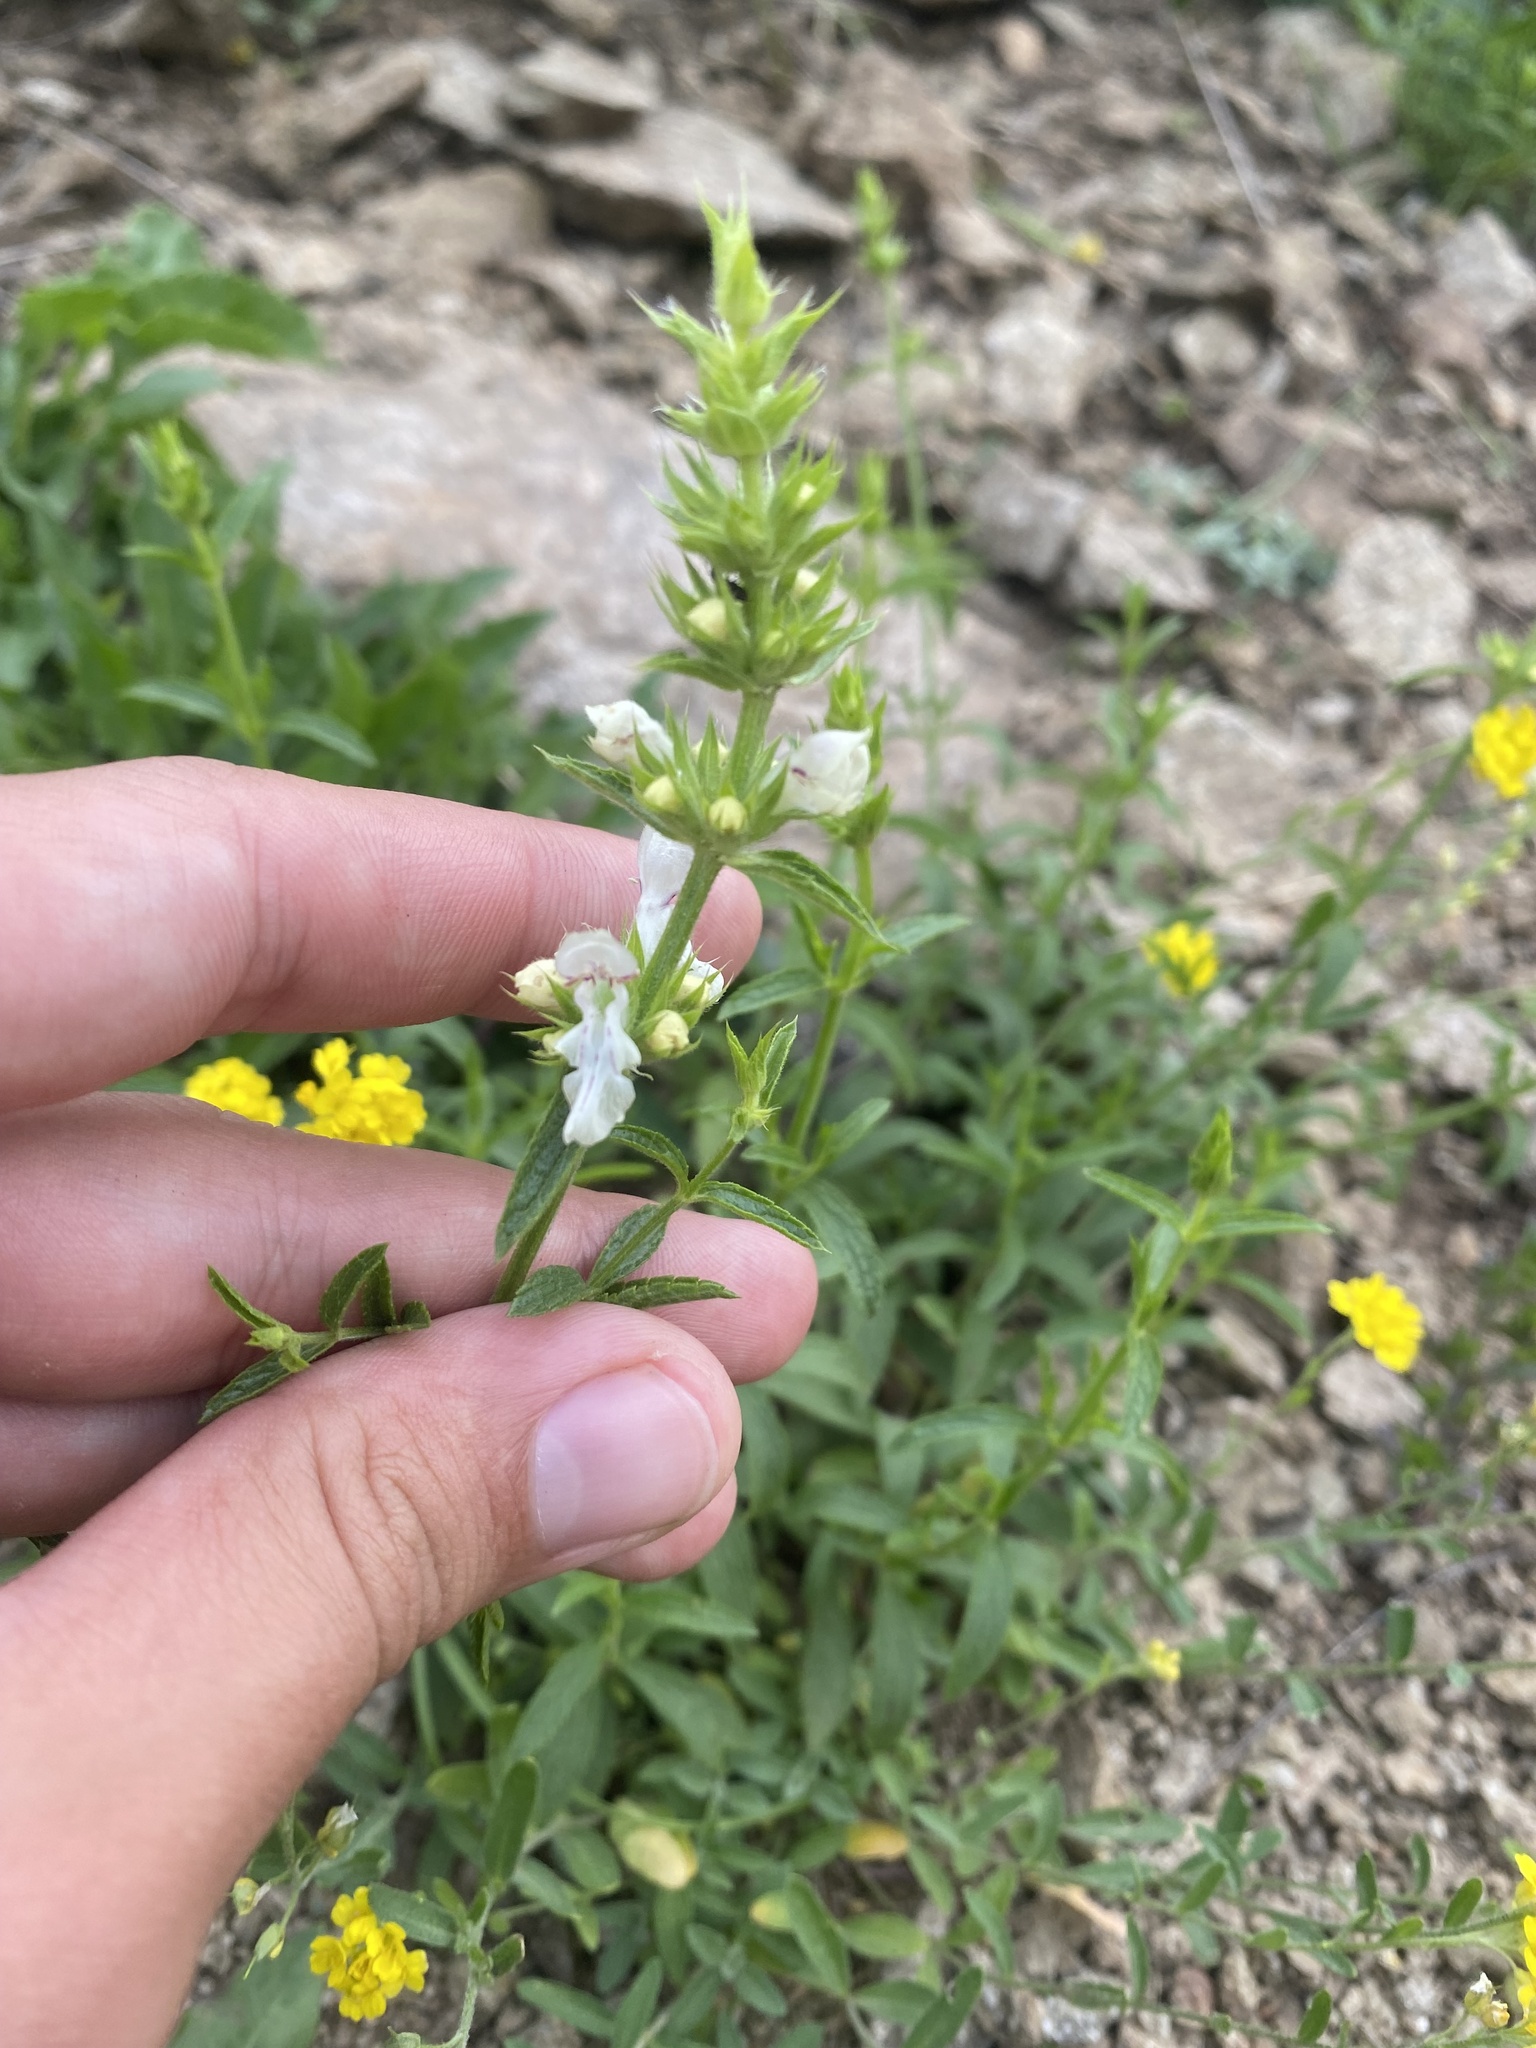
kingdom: Plantae
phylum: Tracheophyta
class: Magnoliopsida
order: Lamiales
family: Lamiaceae
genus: Stachys
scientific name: Stachys atherocalyx
